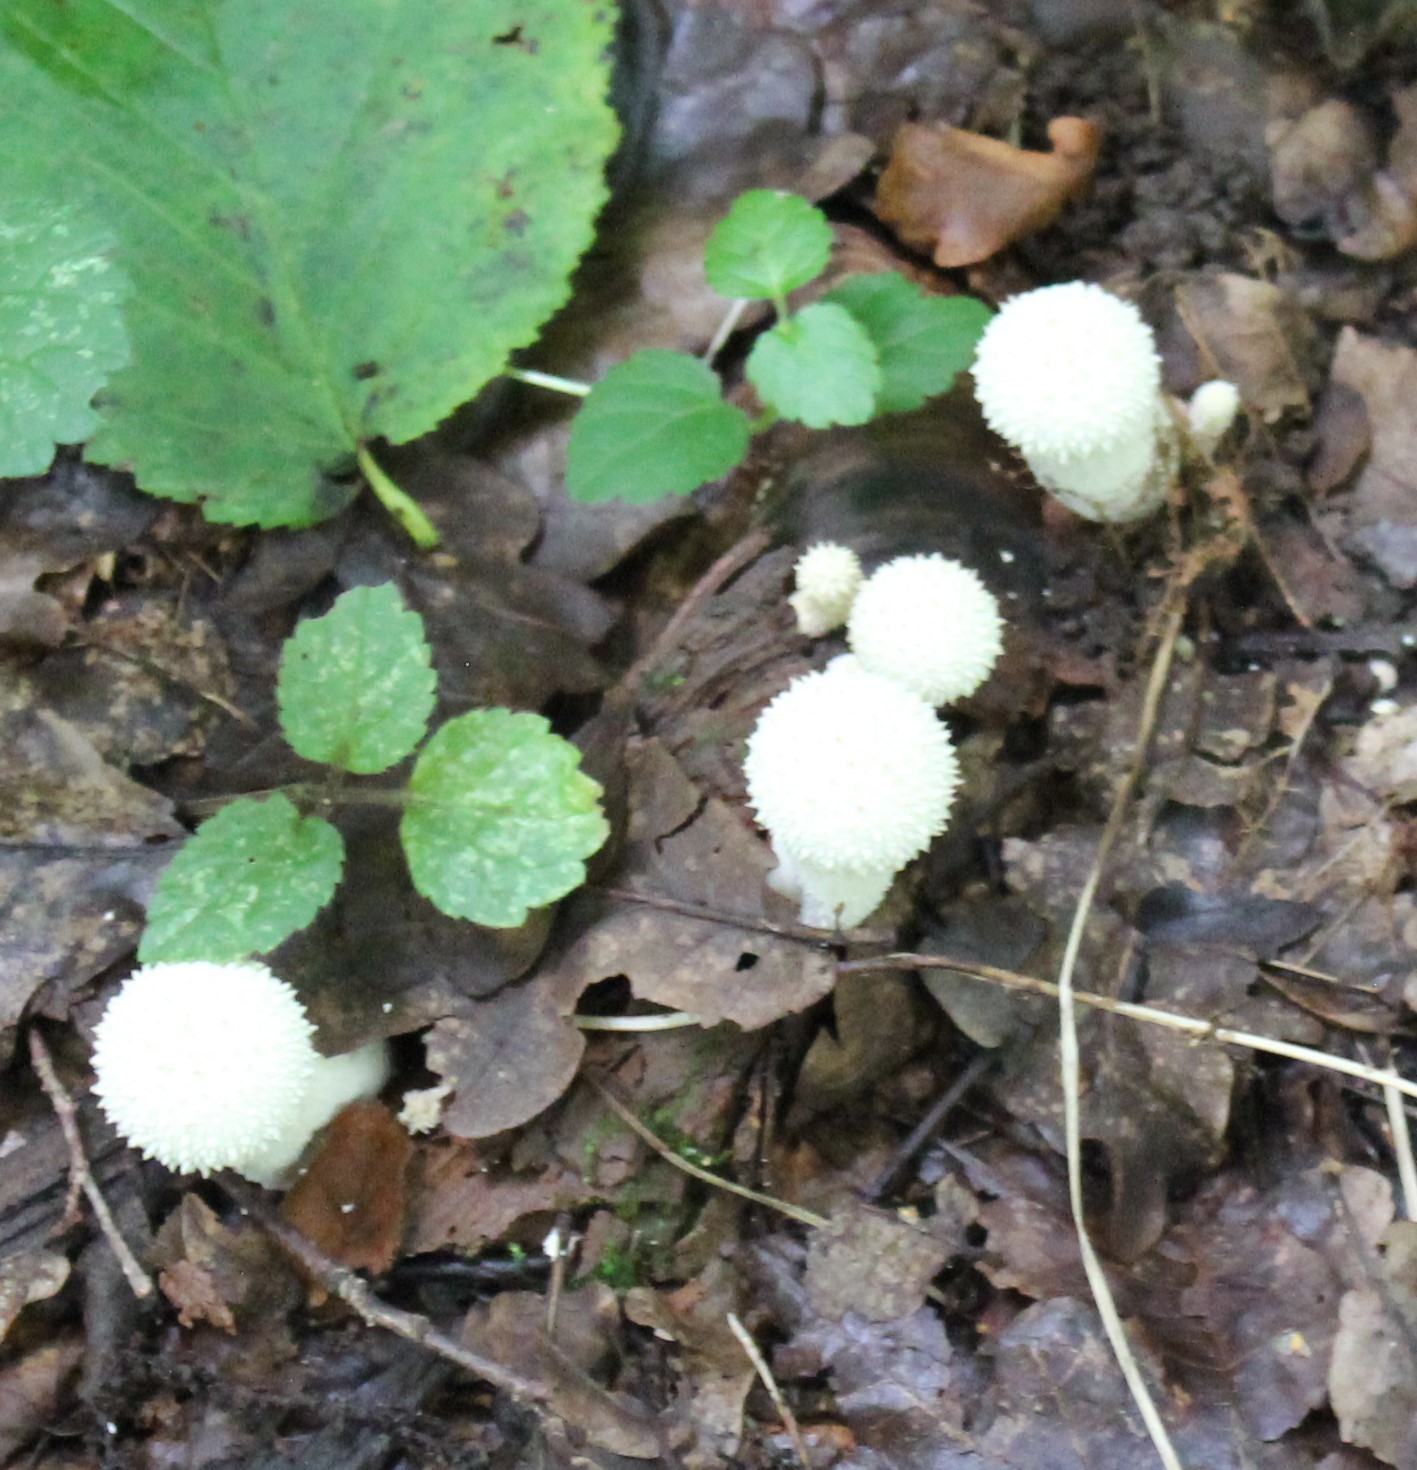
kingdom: Fungi
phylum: Basidiomycota
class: Agaricomycetes
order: Agaricales
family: Lycoperdaceae
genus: Lycoperdon
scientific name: Lycoperdon perlatum
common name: Common puffball
